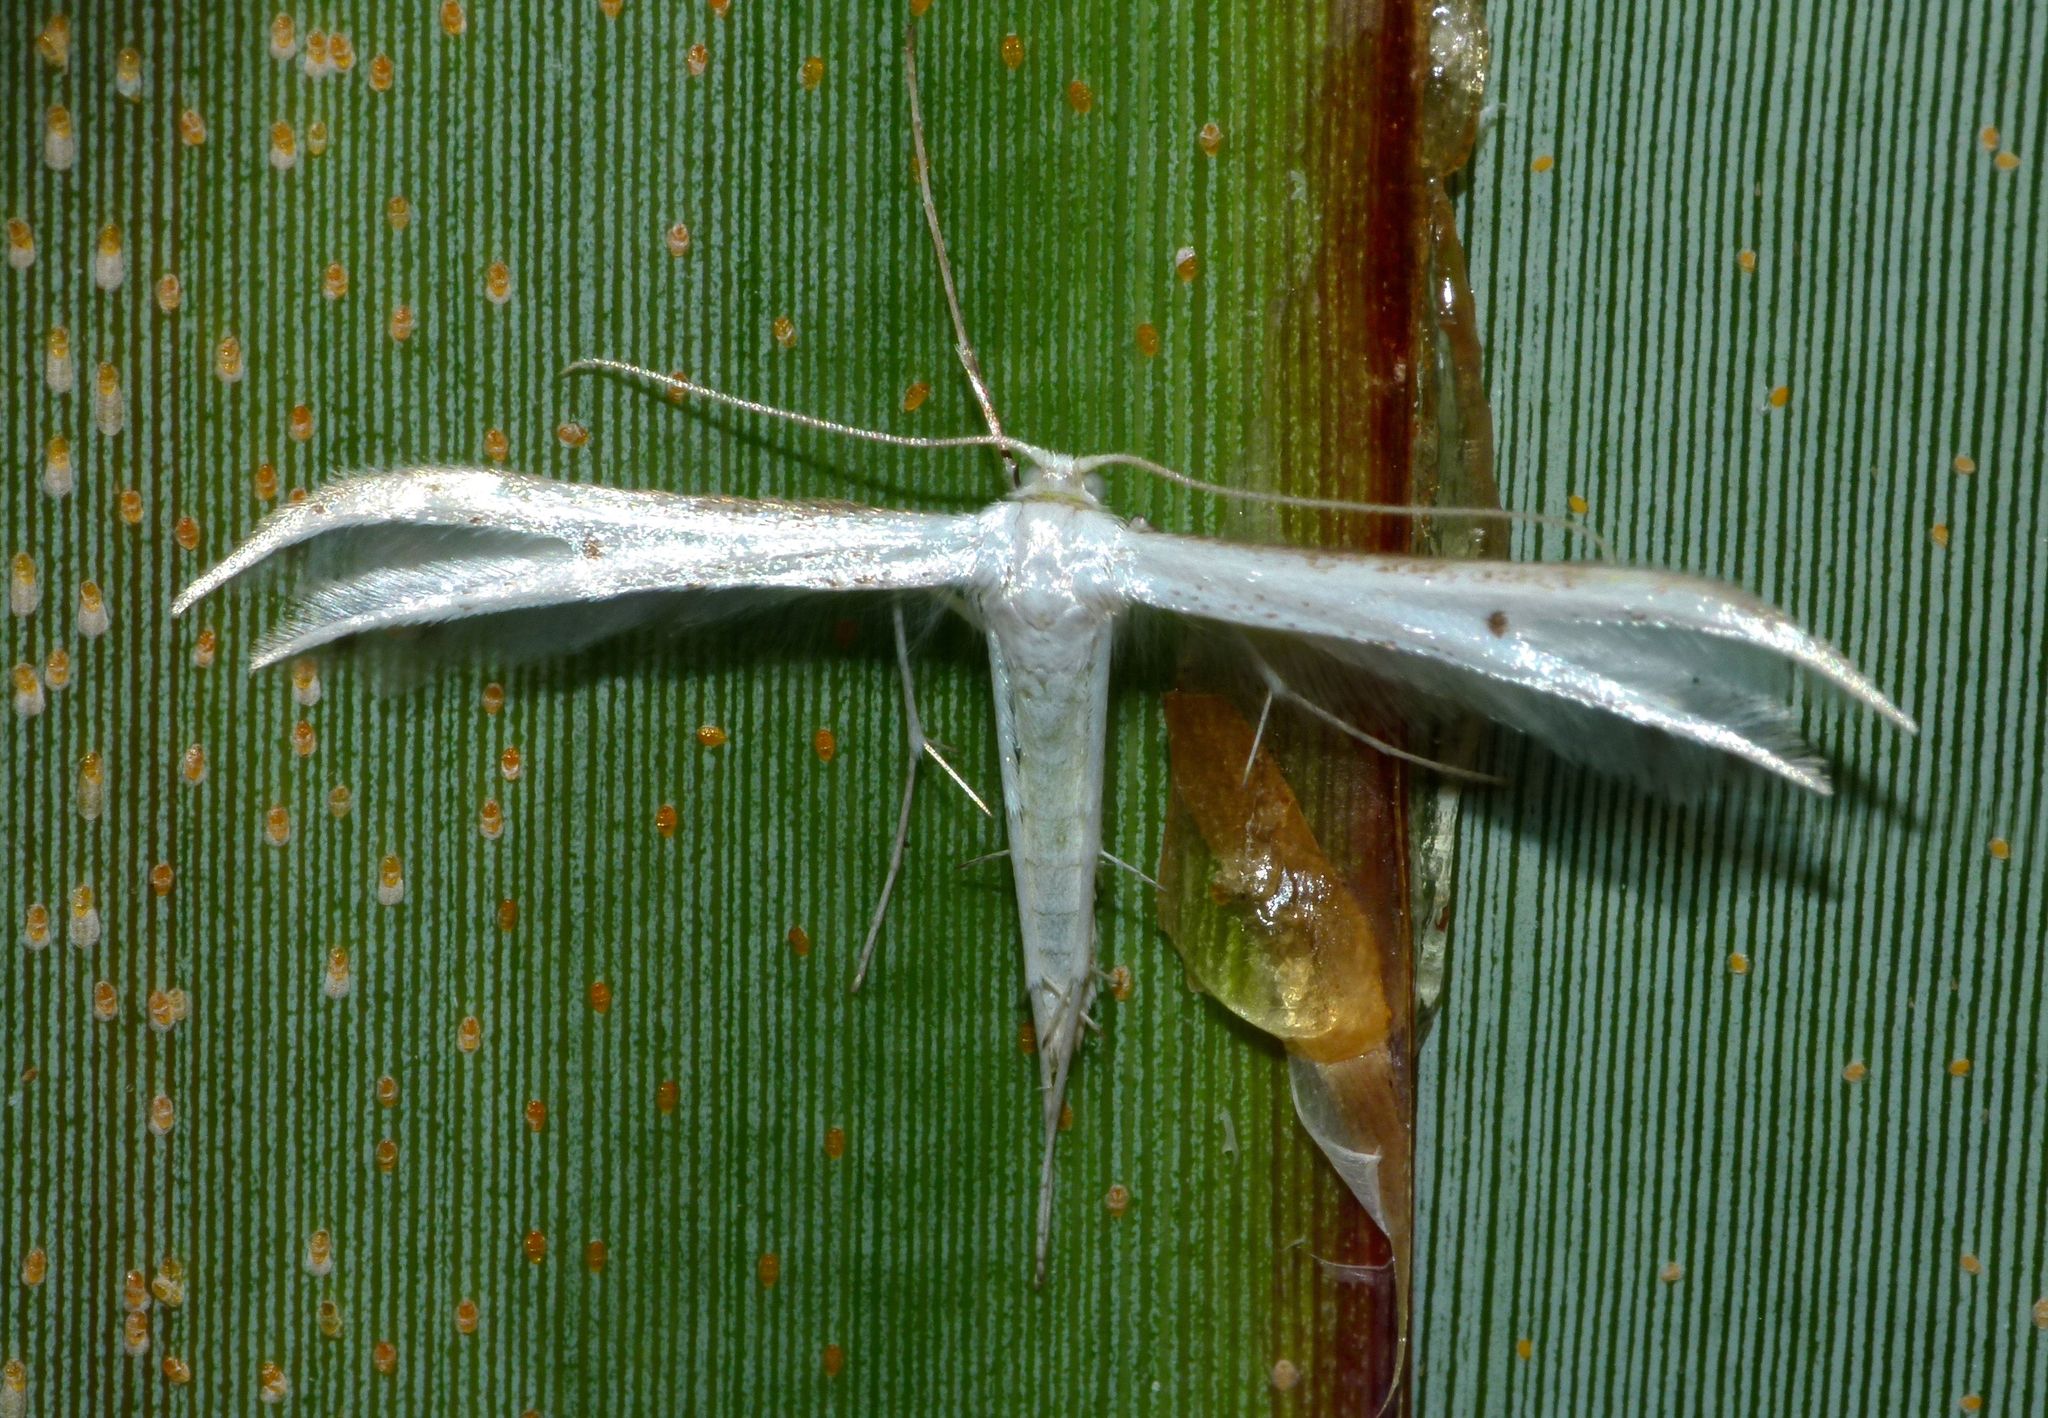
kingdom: Animalia
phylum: Arthropoda
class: Insecta
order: Lepidoptera
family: Pterophoridae
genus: Pterophorus
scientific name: Pterophorus monospilalis
